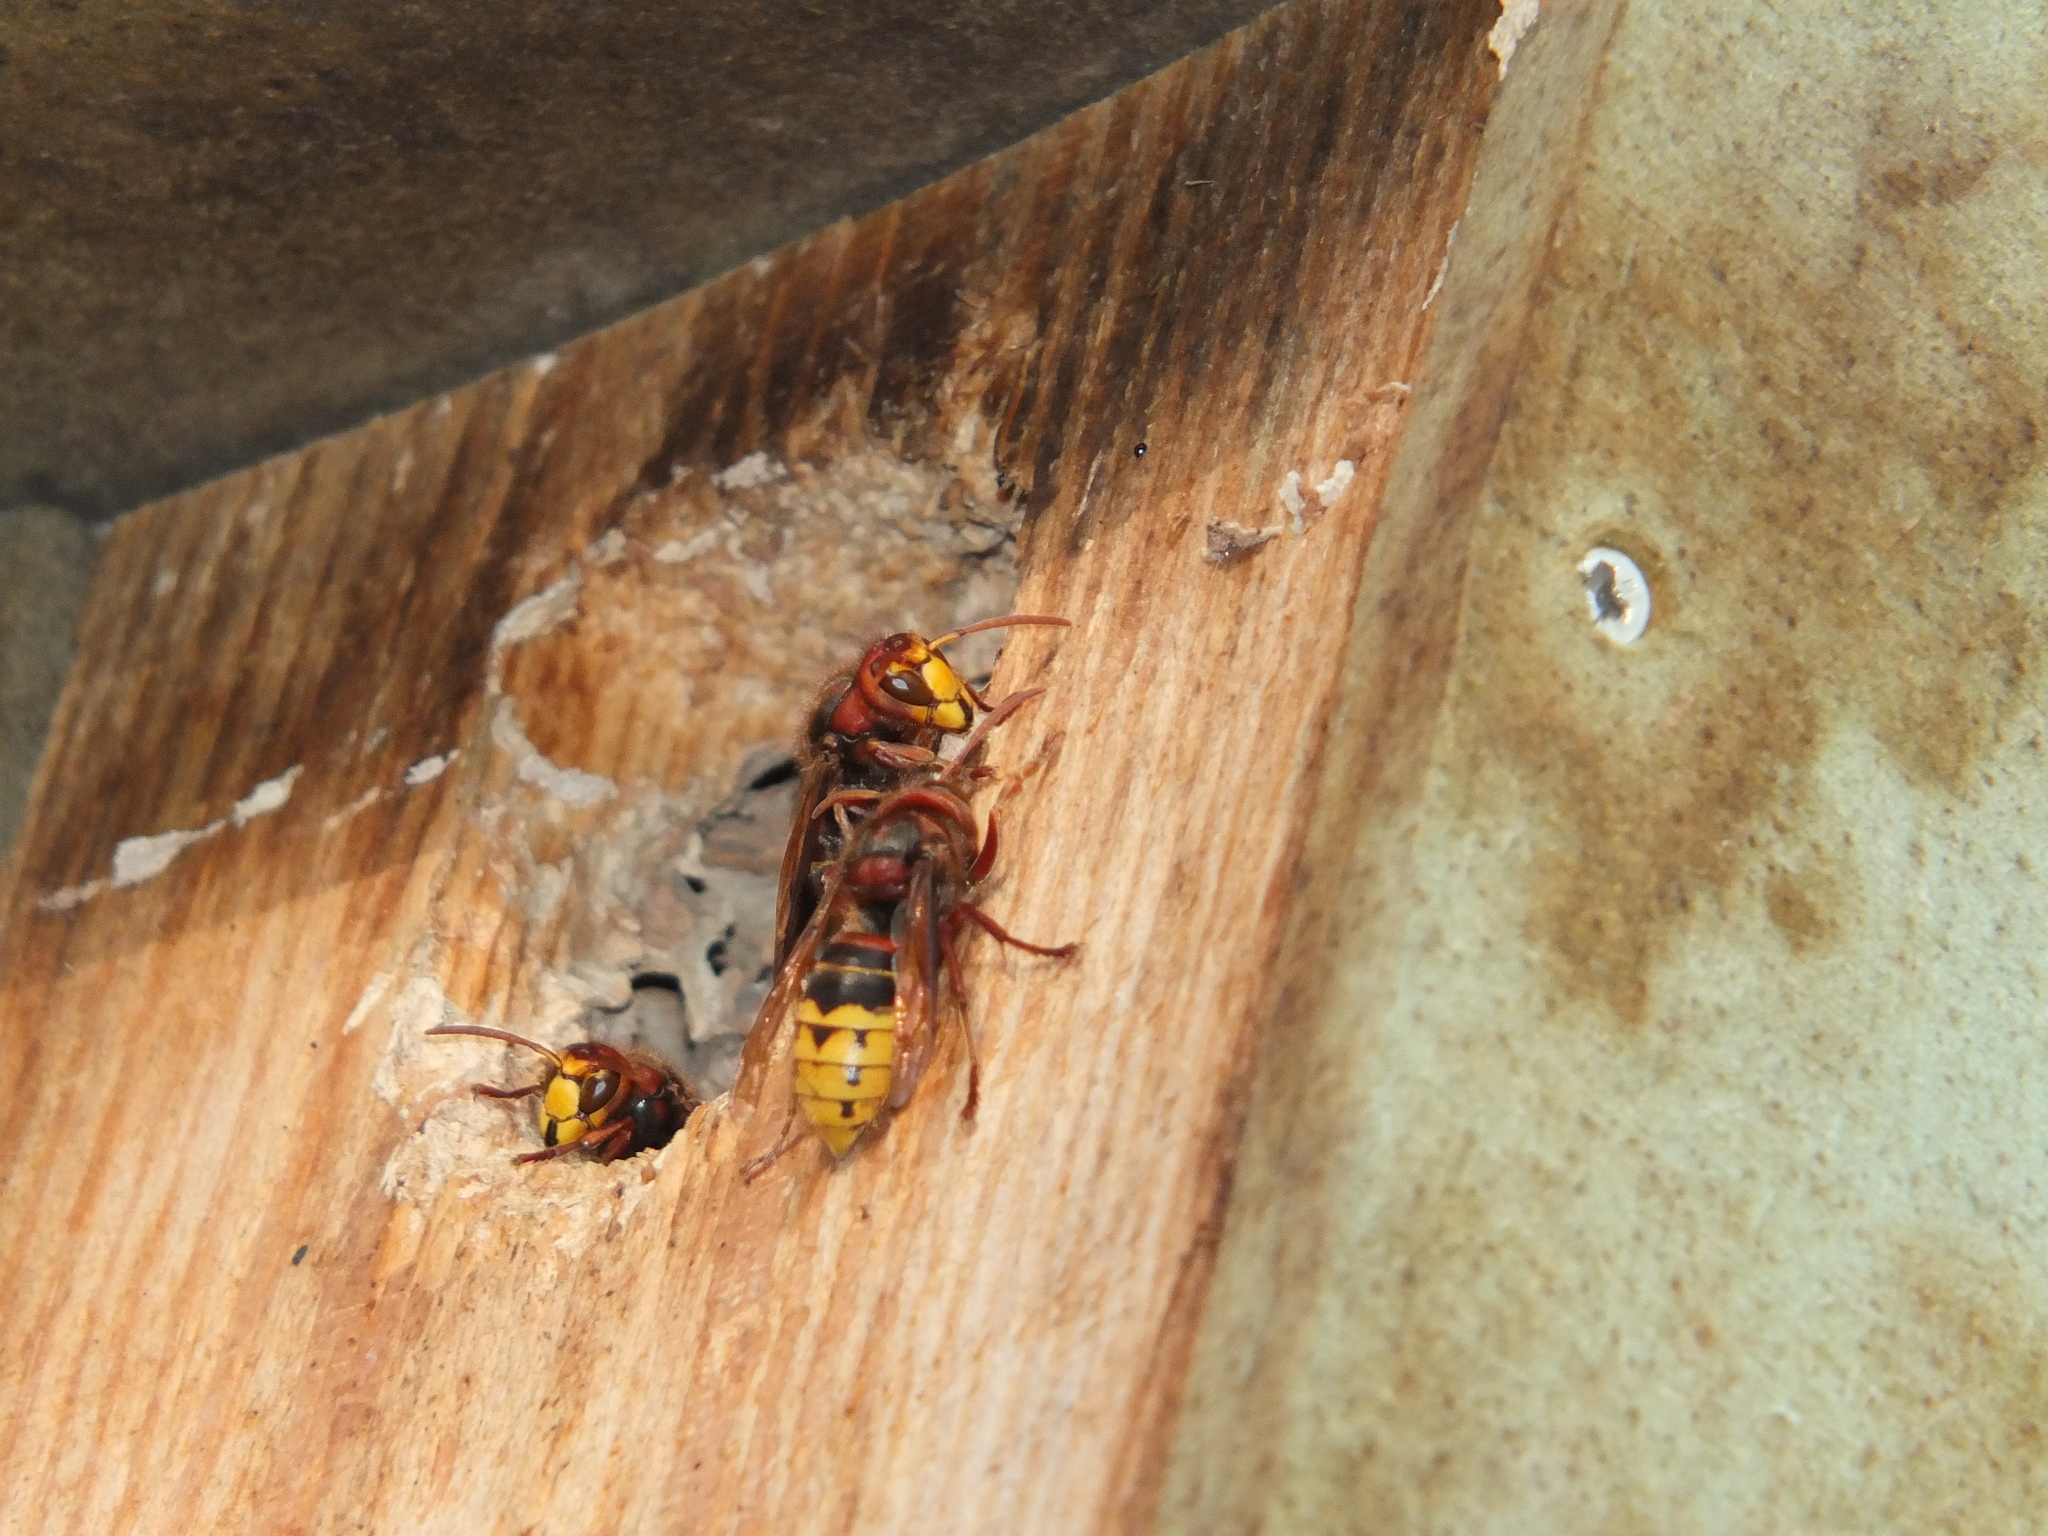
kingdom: Animalia
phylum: Arthropoda
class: Insecta
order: Hymenoptera
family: Vespidae
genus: Vespa
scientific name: Vespa crabro
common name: Hornet
